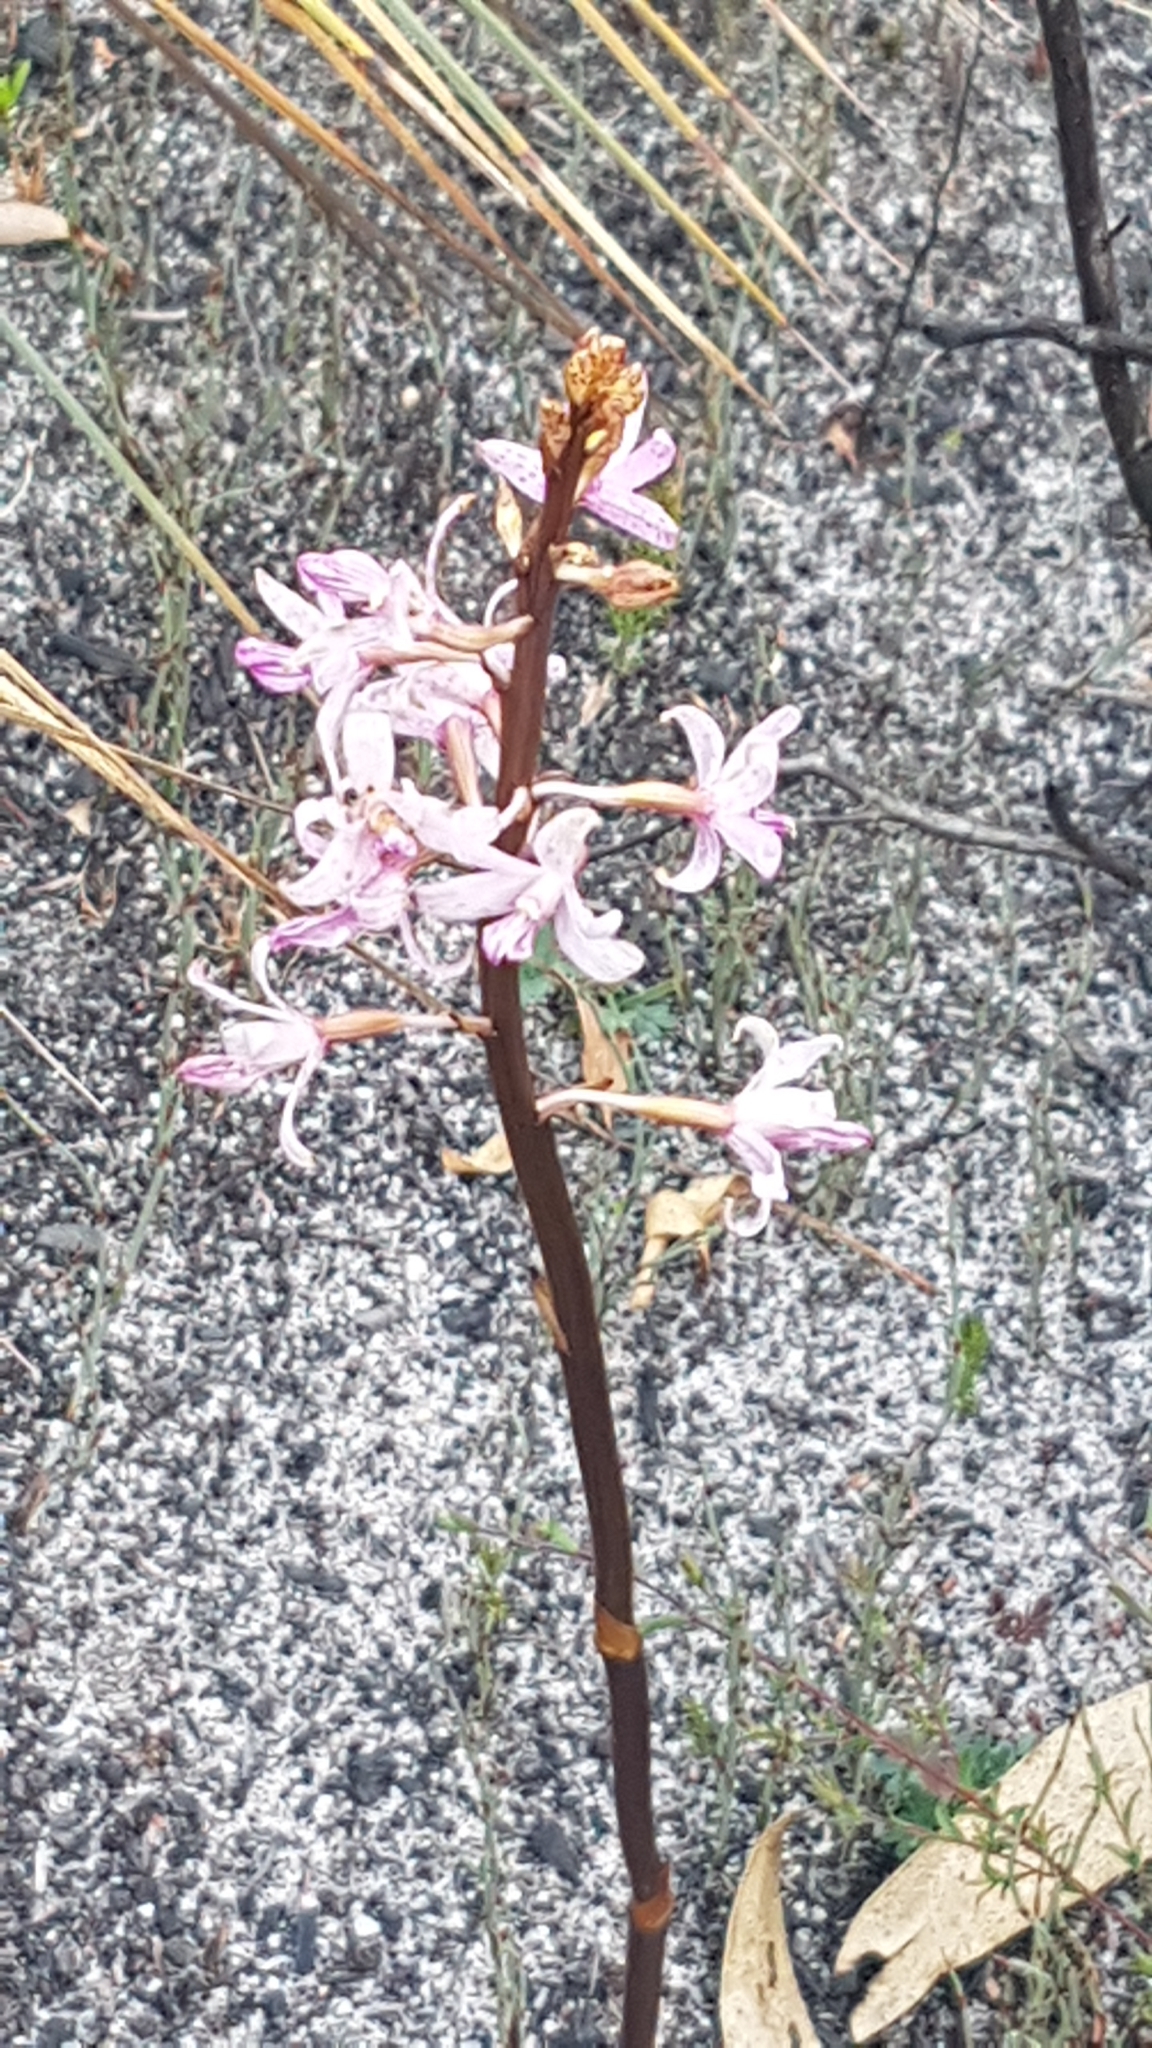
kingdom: Plantae
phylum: Tracheophyta
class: Liliopsida
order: Asparagales
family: Orchidaceae
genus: Dipodium
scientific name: Dipodium roseum
